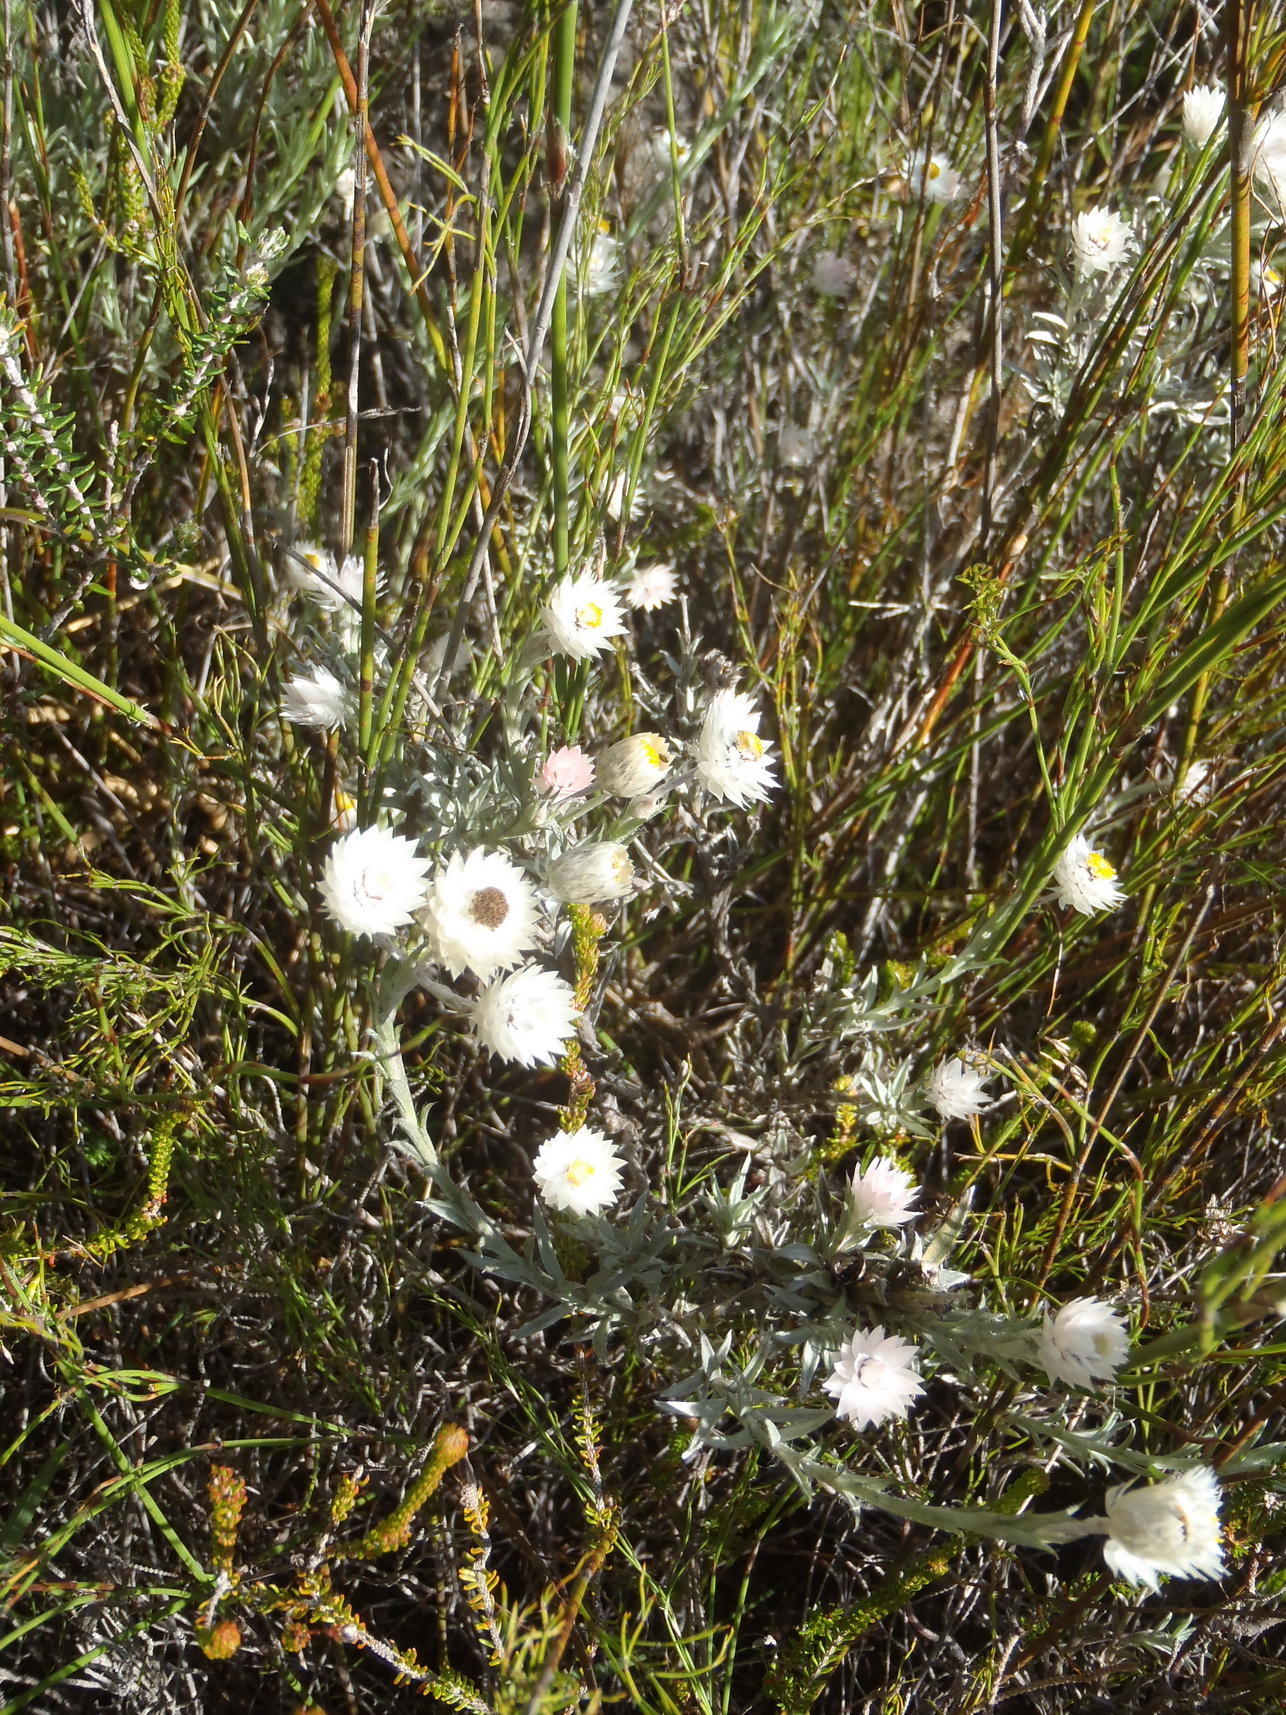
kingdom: Plantae
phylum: Tracheophyta
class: Magnoliopsida
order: Asterales
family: Asteraceae
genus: Achyranthemum
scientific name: Achyranthemum paniculatum
